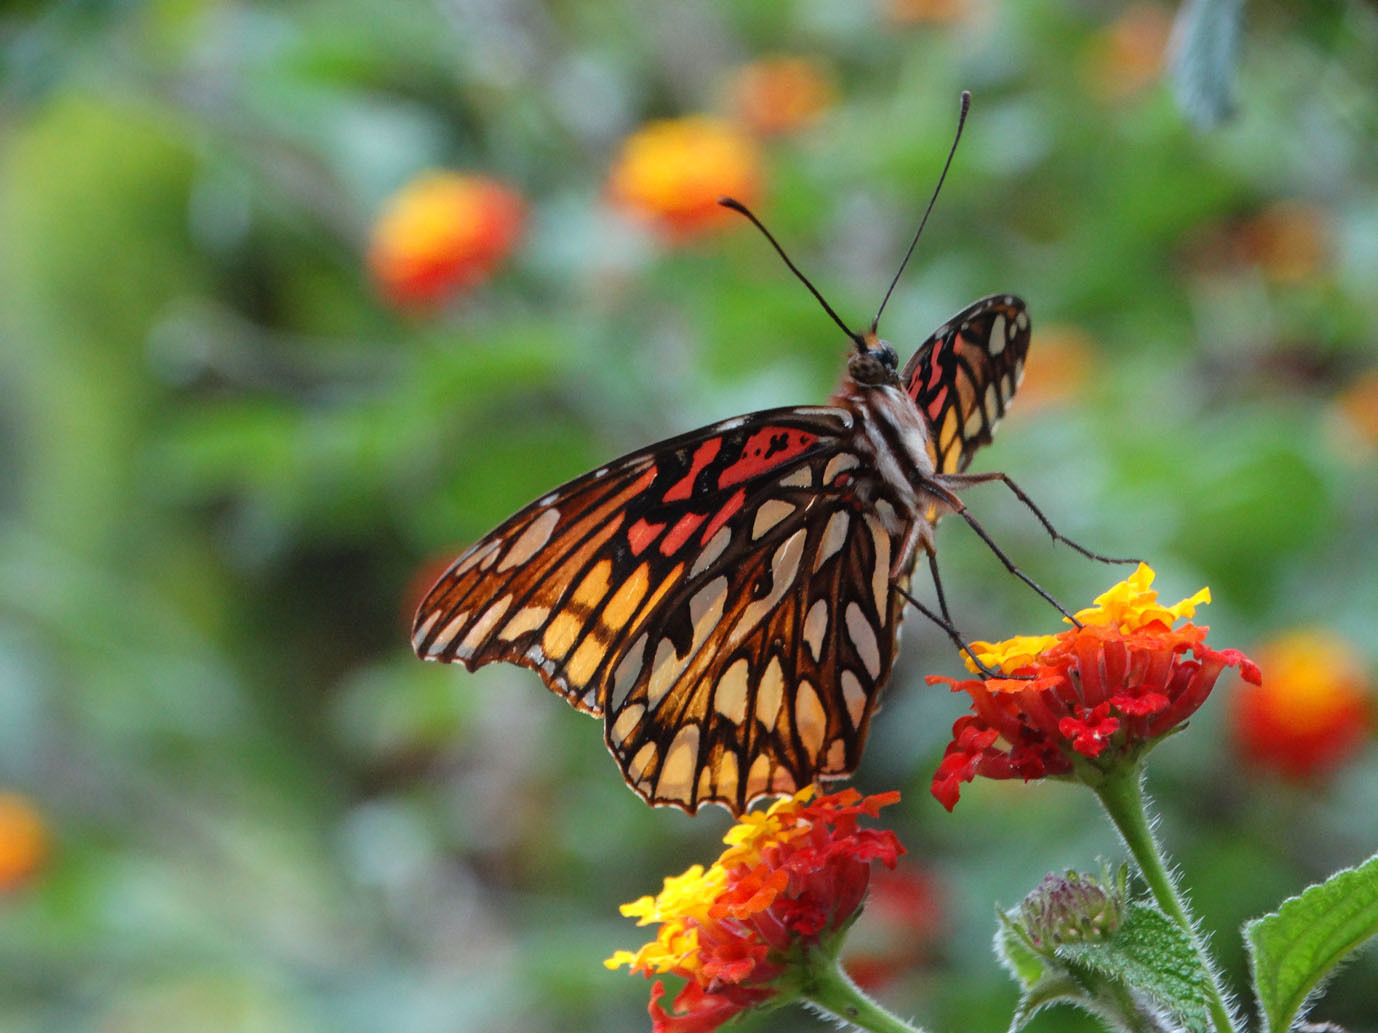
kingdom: Animalia
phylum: Arthropoda
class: Insecta
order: Lepidoptera
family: Nymphalidae
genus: Dione
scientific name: Dione moneta
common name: Mexican silverspot
